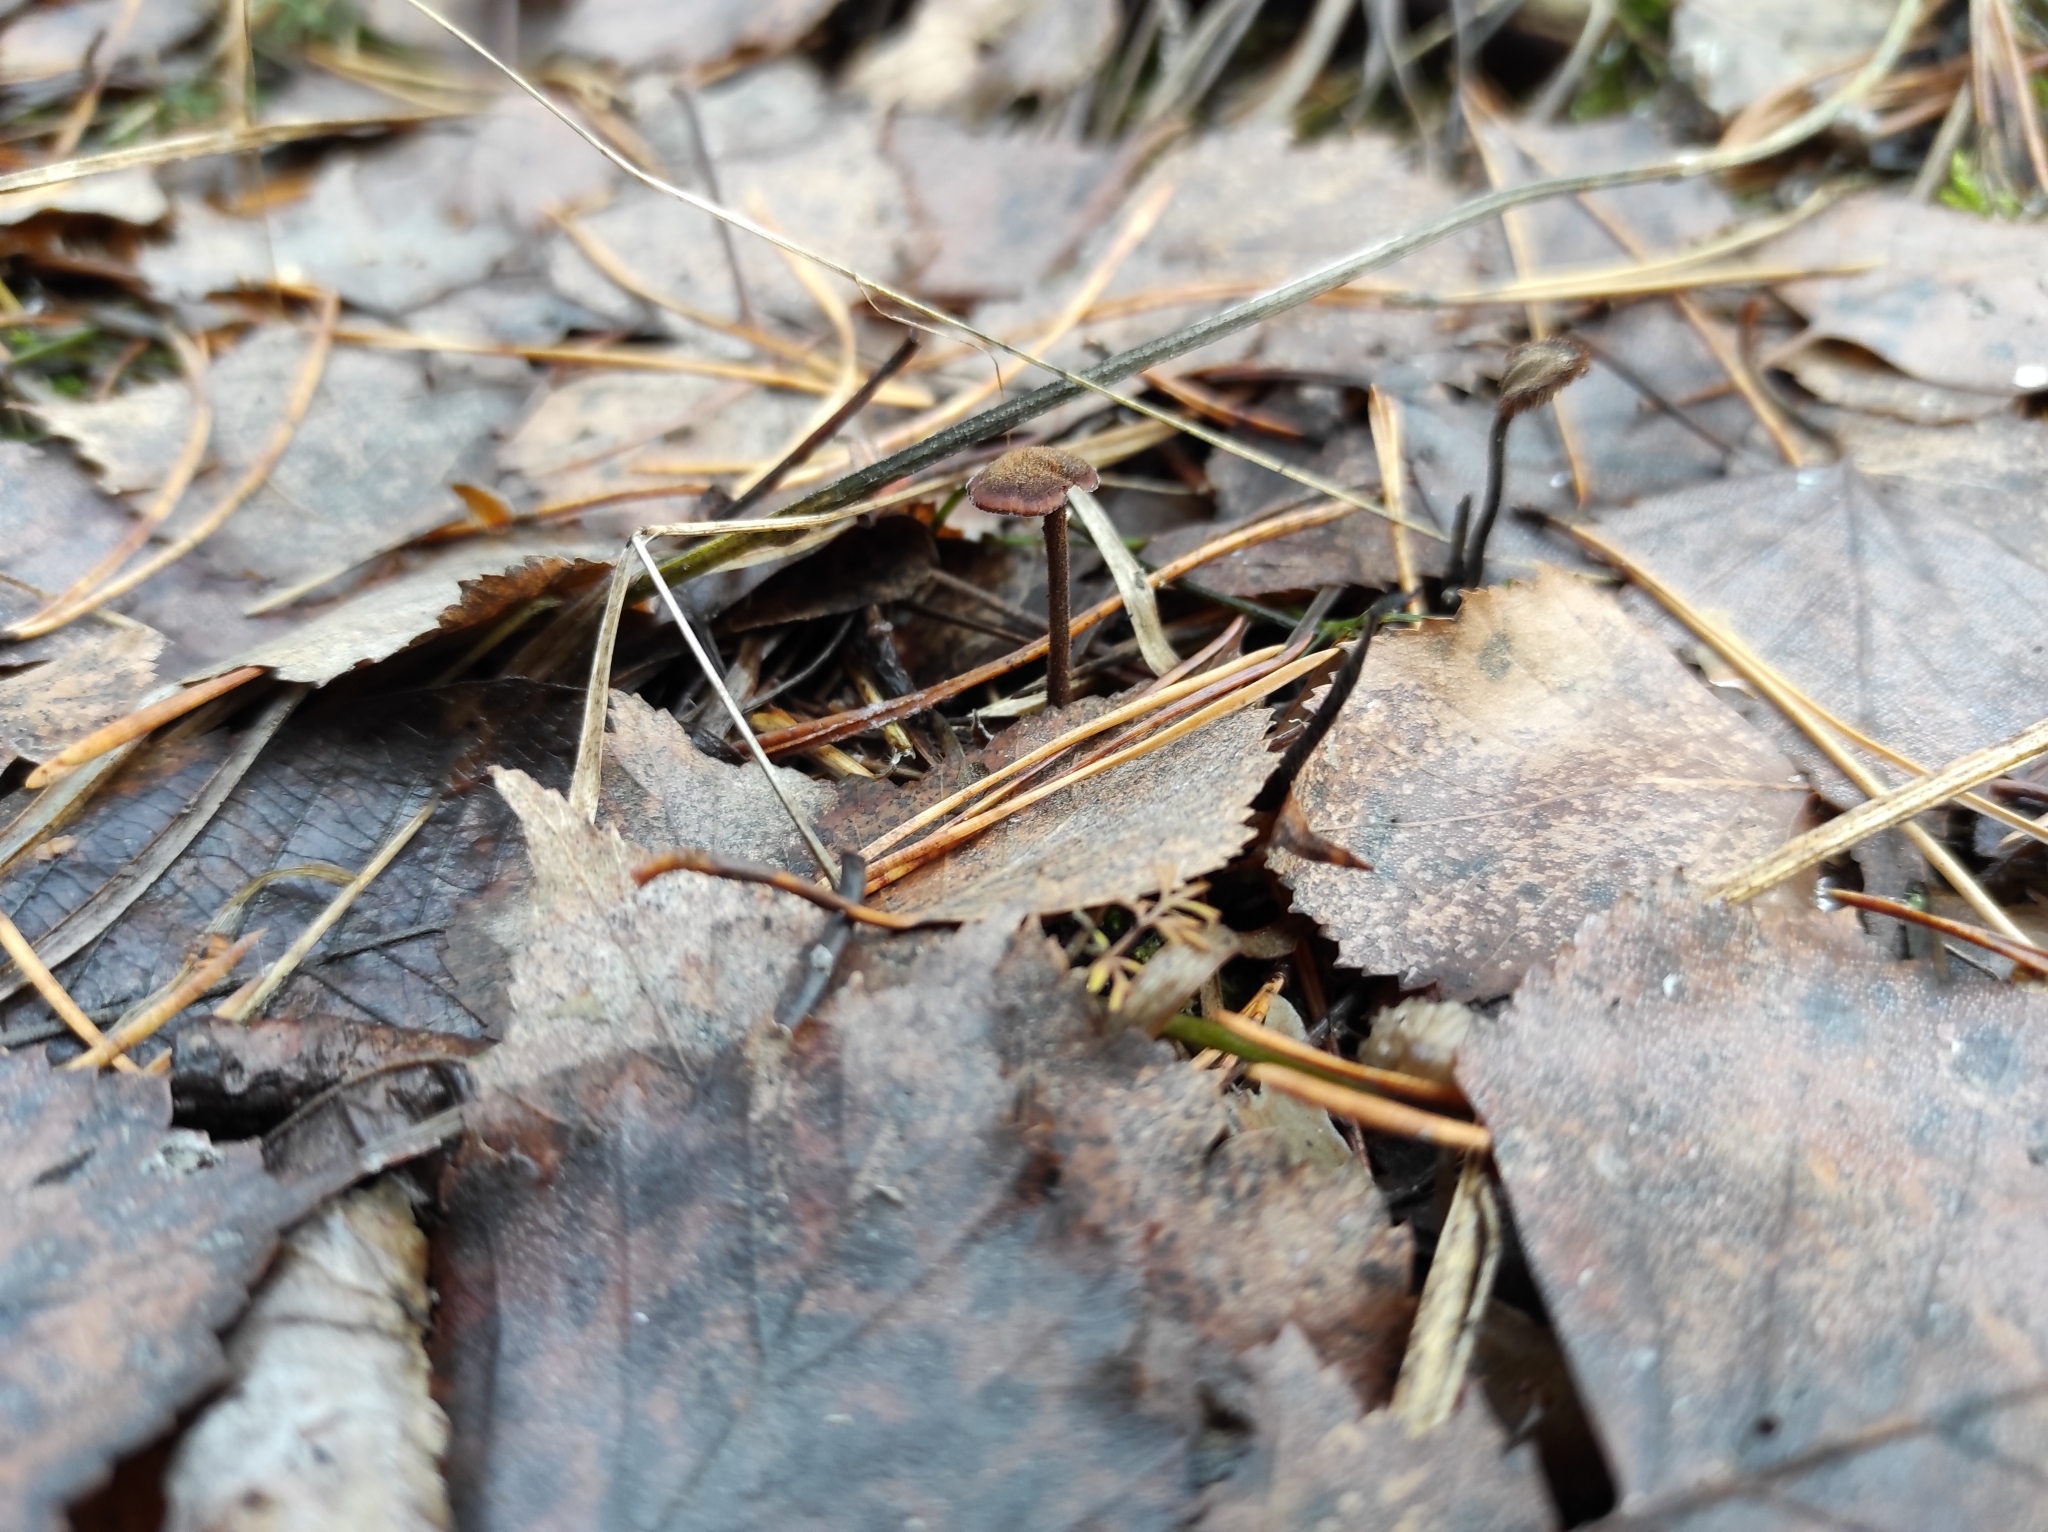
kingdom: Fungi
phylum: Basidiomycota
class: Agaricomycetes
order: Russulales
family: Auriscalpiaceae
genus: Auriscalpium
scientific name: Auriscalpium vulgare
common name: Earpick fungus
